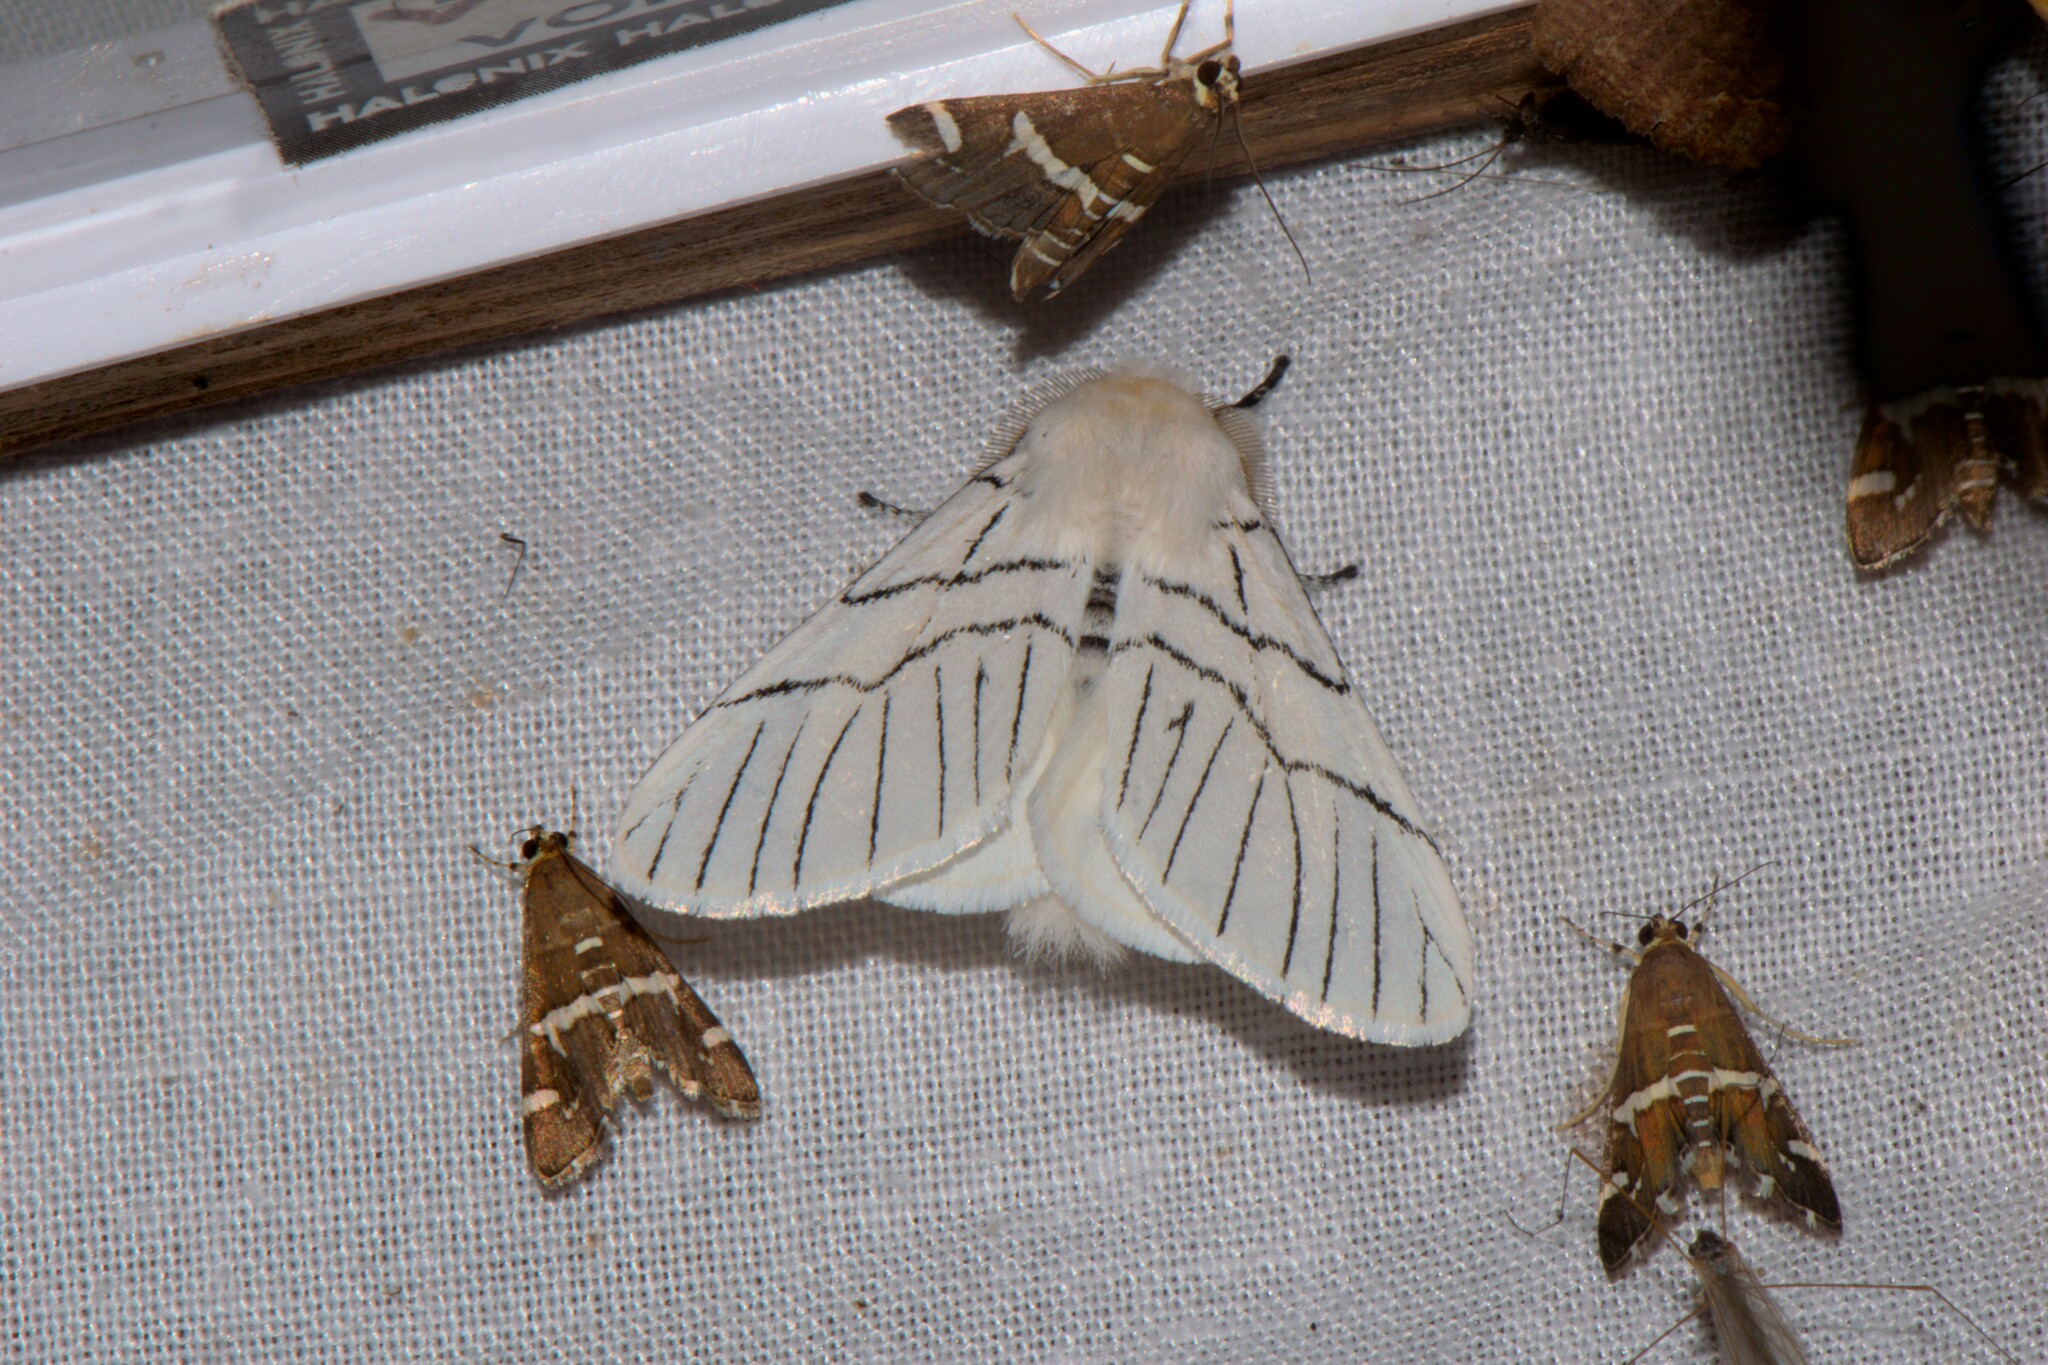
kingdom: Animalia
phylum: Arthropoda
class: Insecta
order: Lepidoptera
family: Notodontidae
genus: Oligoclona
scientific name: Oligoclona chrysolopha
